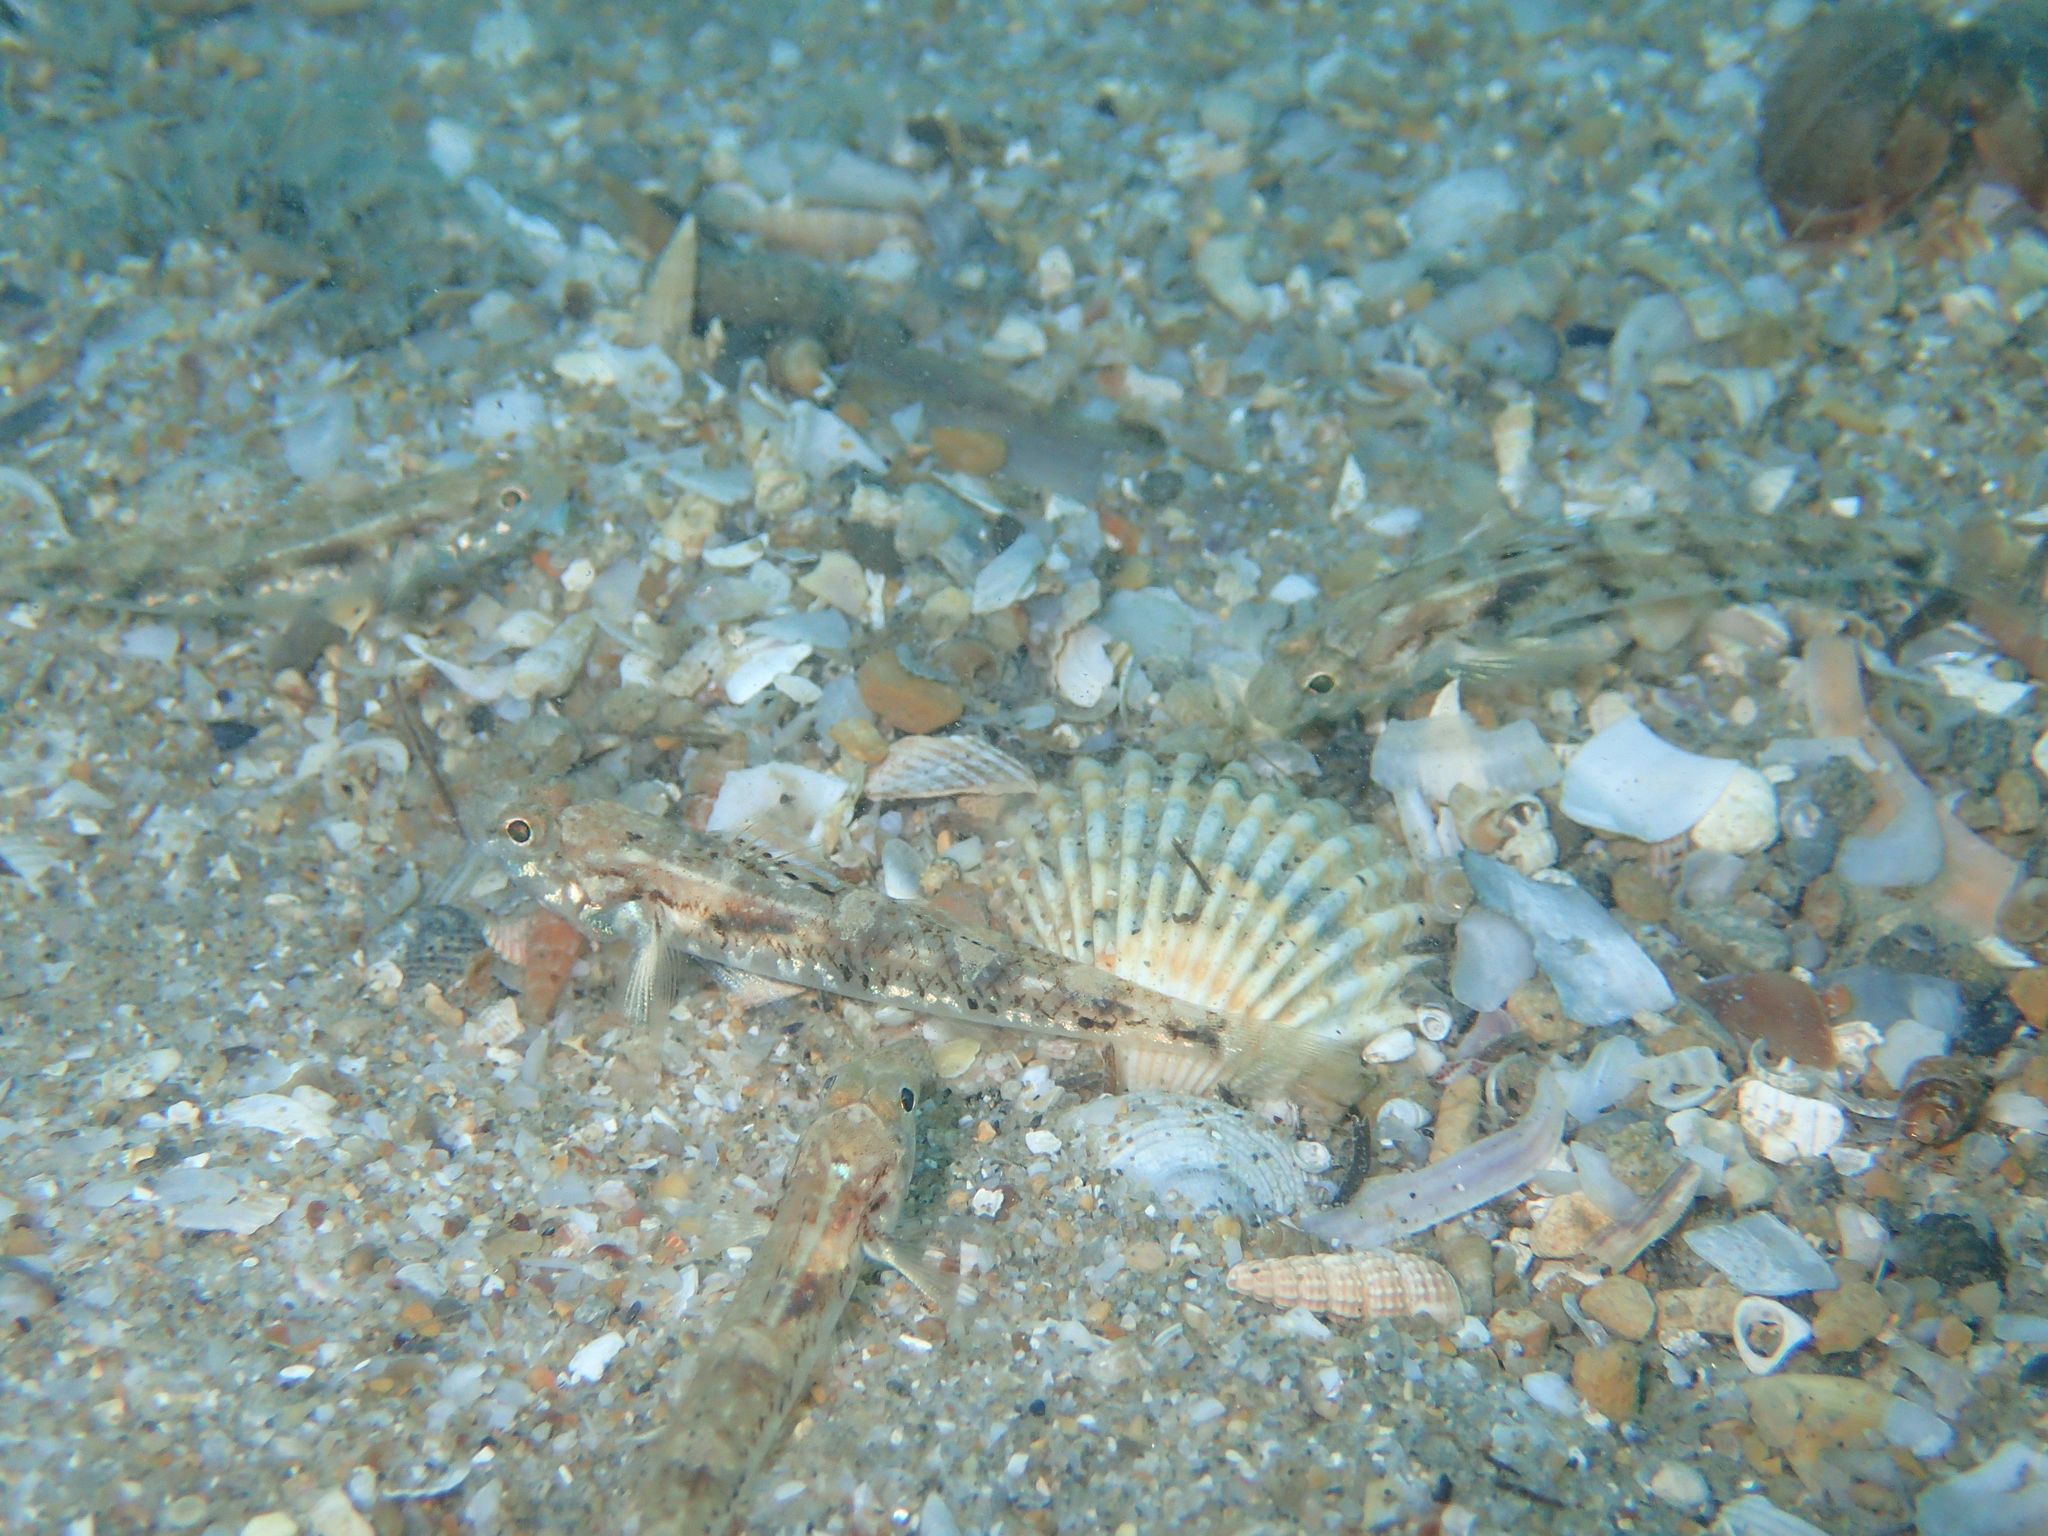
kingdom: Animalia
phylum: Chordata
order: Perciformes
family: Gobiidae
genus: Pomatoschistus
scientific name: Pomatoschistus pictus
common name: Painted goby
